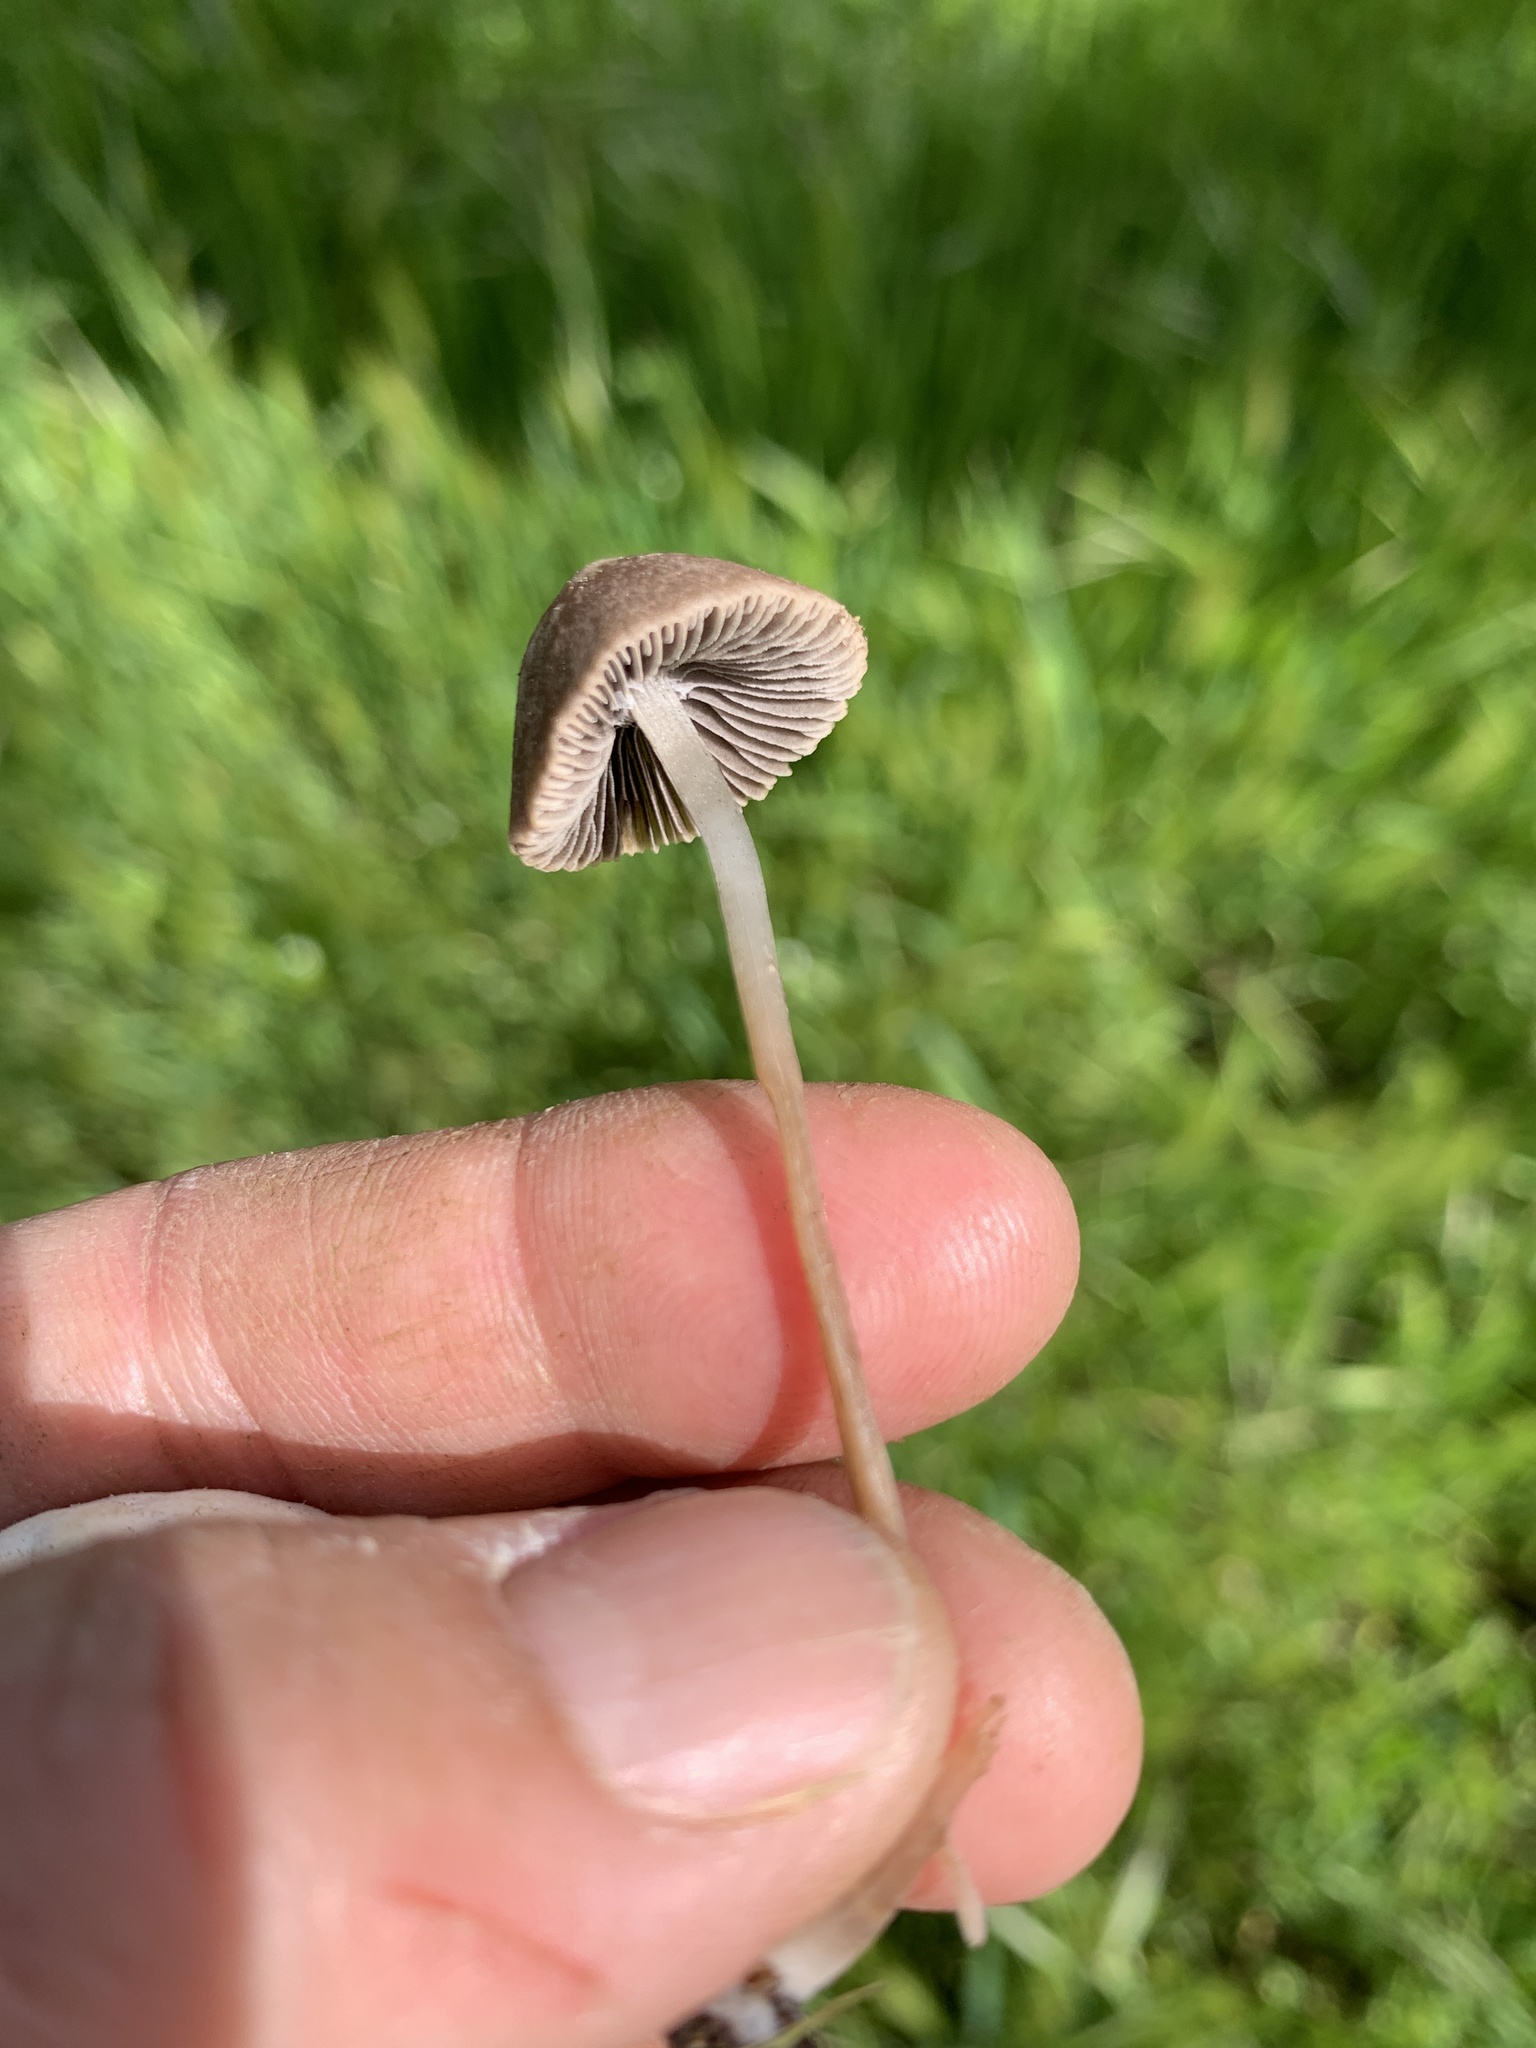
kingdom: Fungi
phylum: Basidiomycota
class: Agaricomycetes
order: Agaricales
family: Psathyrellaceae
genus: Psathyrella
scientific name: Psathyrella corrugis
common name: Red edge brittlestem
